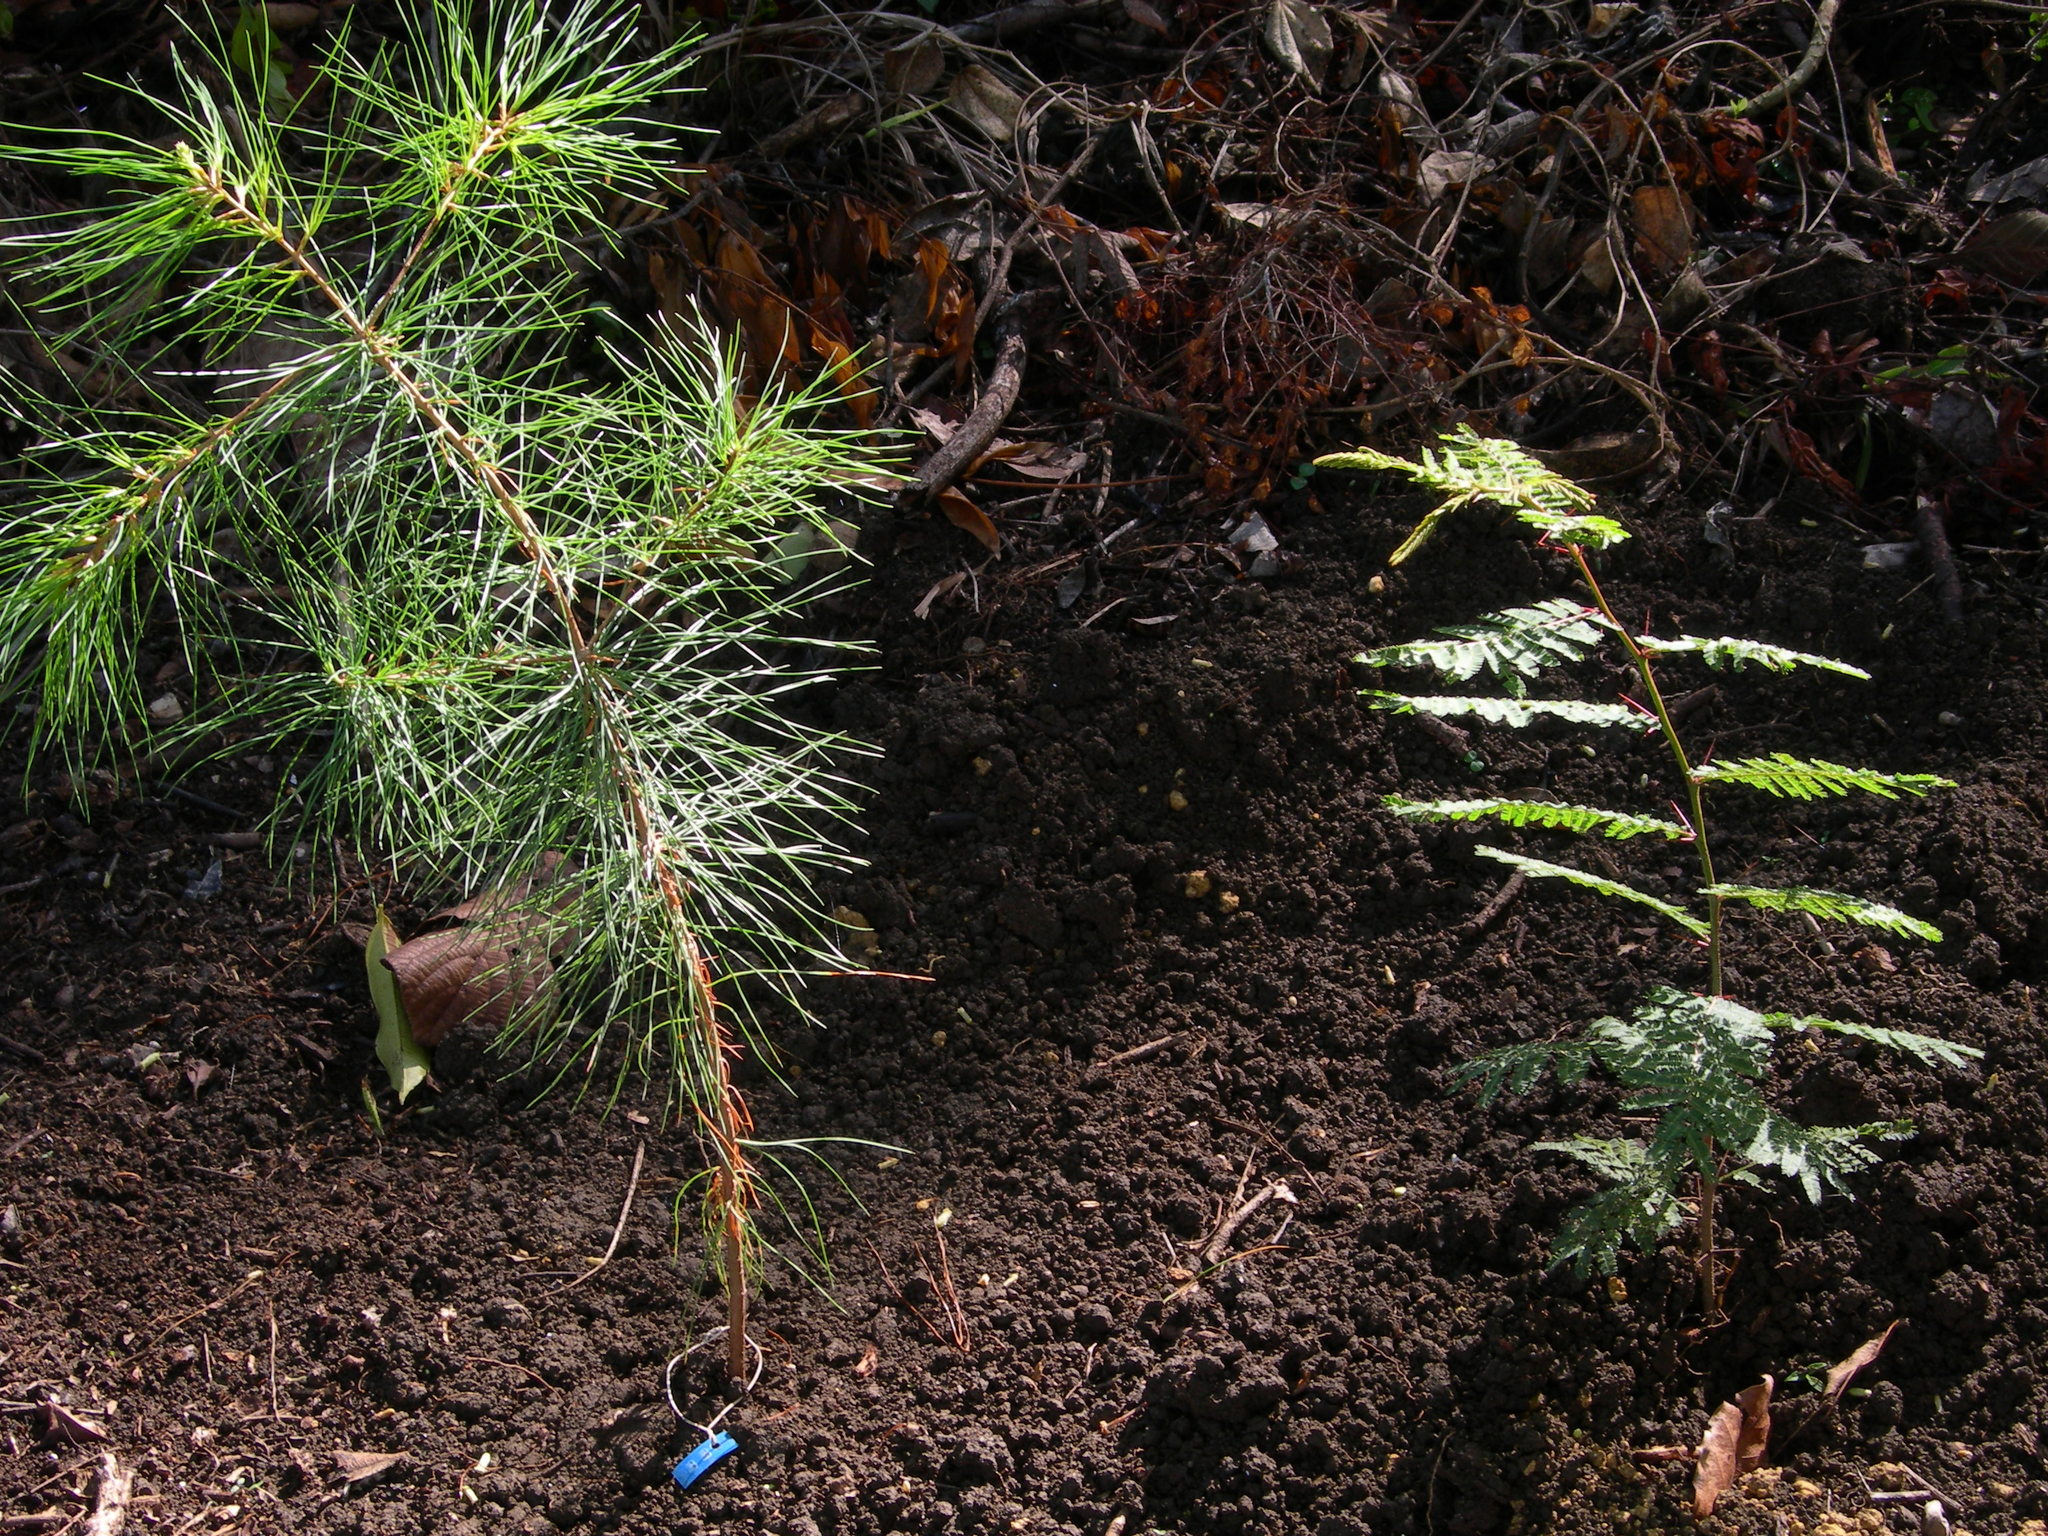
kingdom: Plantae
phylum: Tracheophyta
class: Pinopsida
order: Pinales
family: Pinaceae
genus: Pinus
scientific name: Pinus strobus
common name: Weymouth pine
